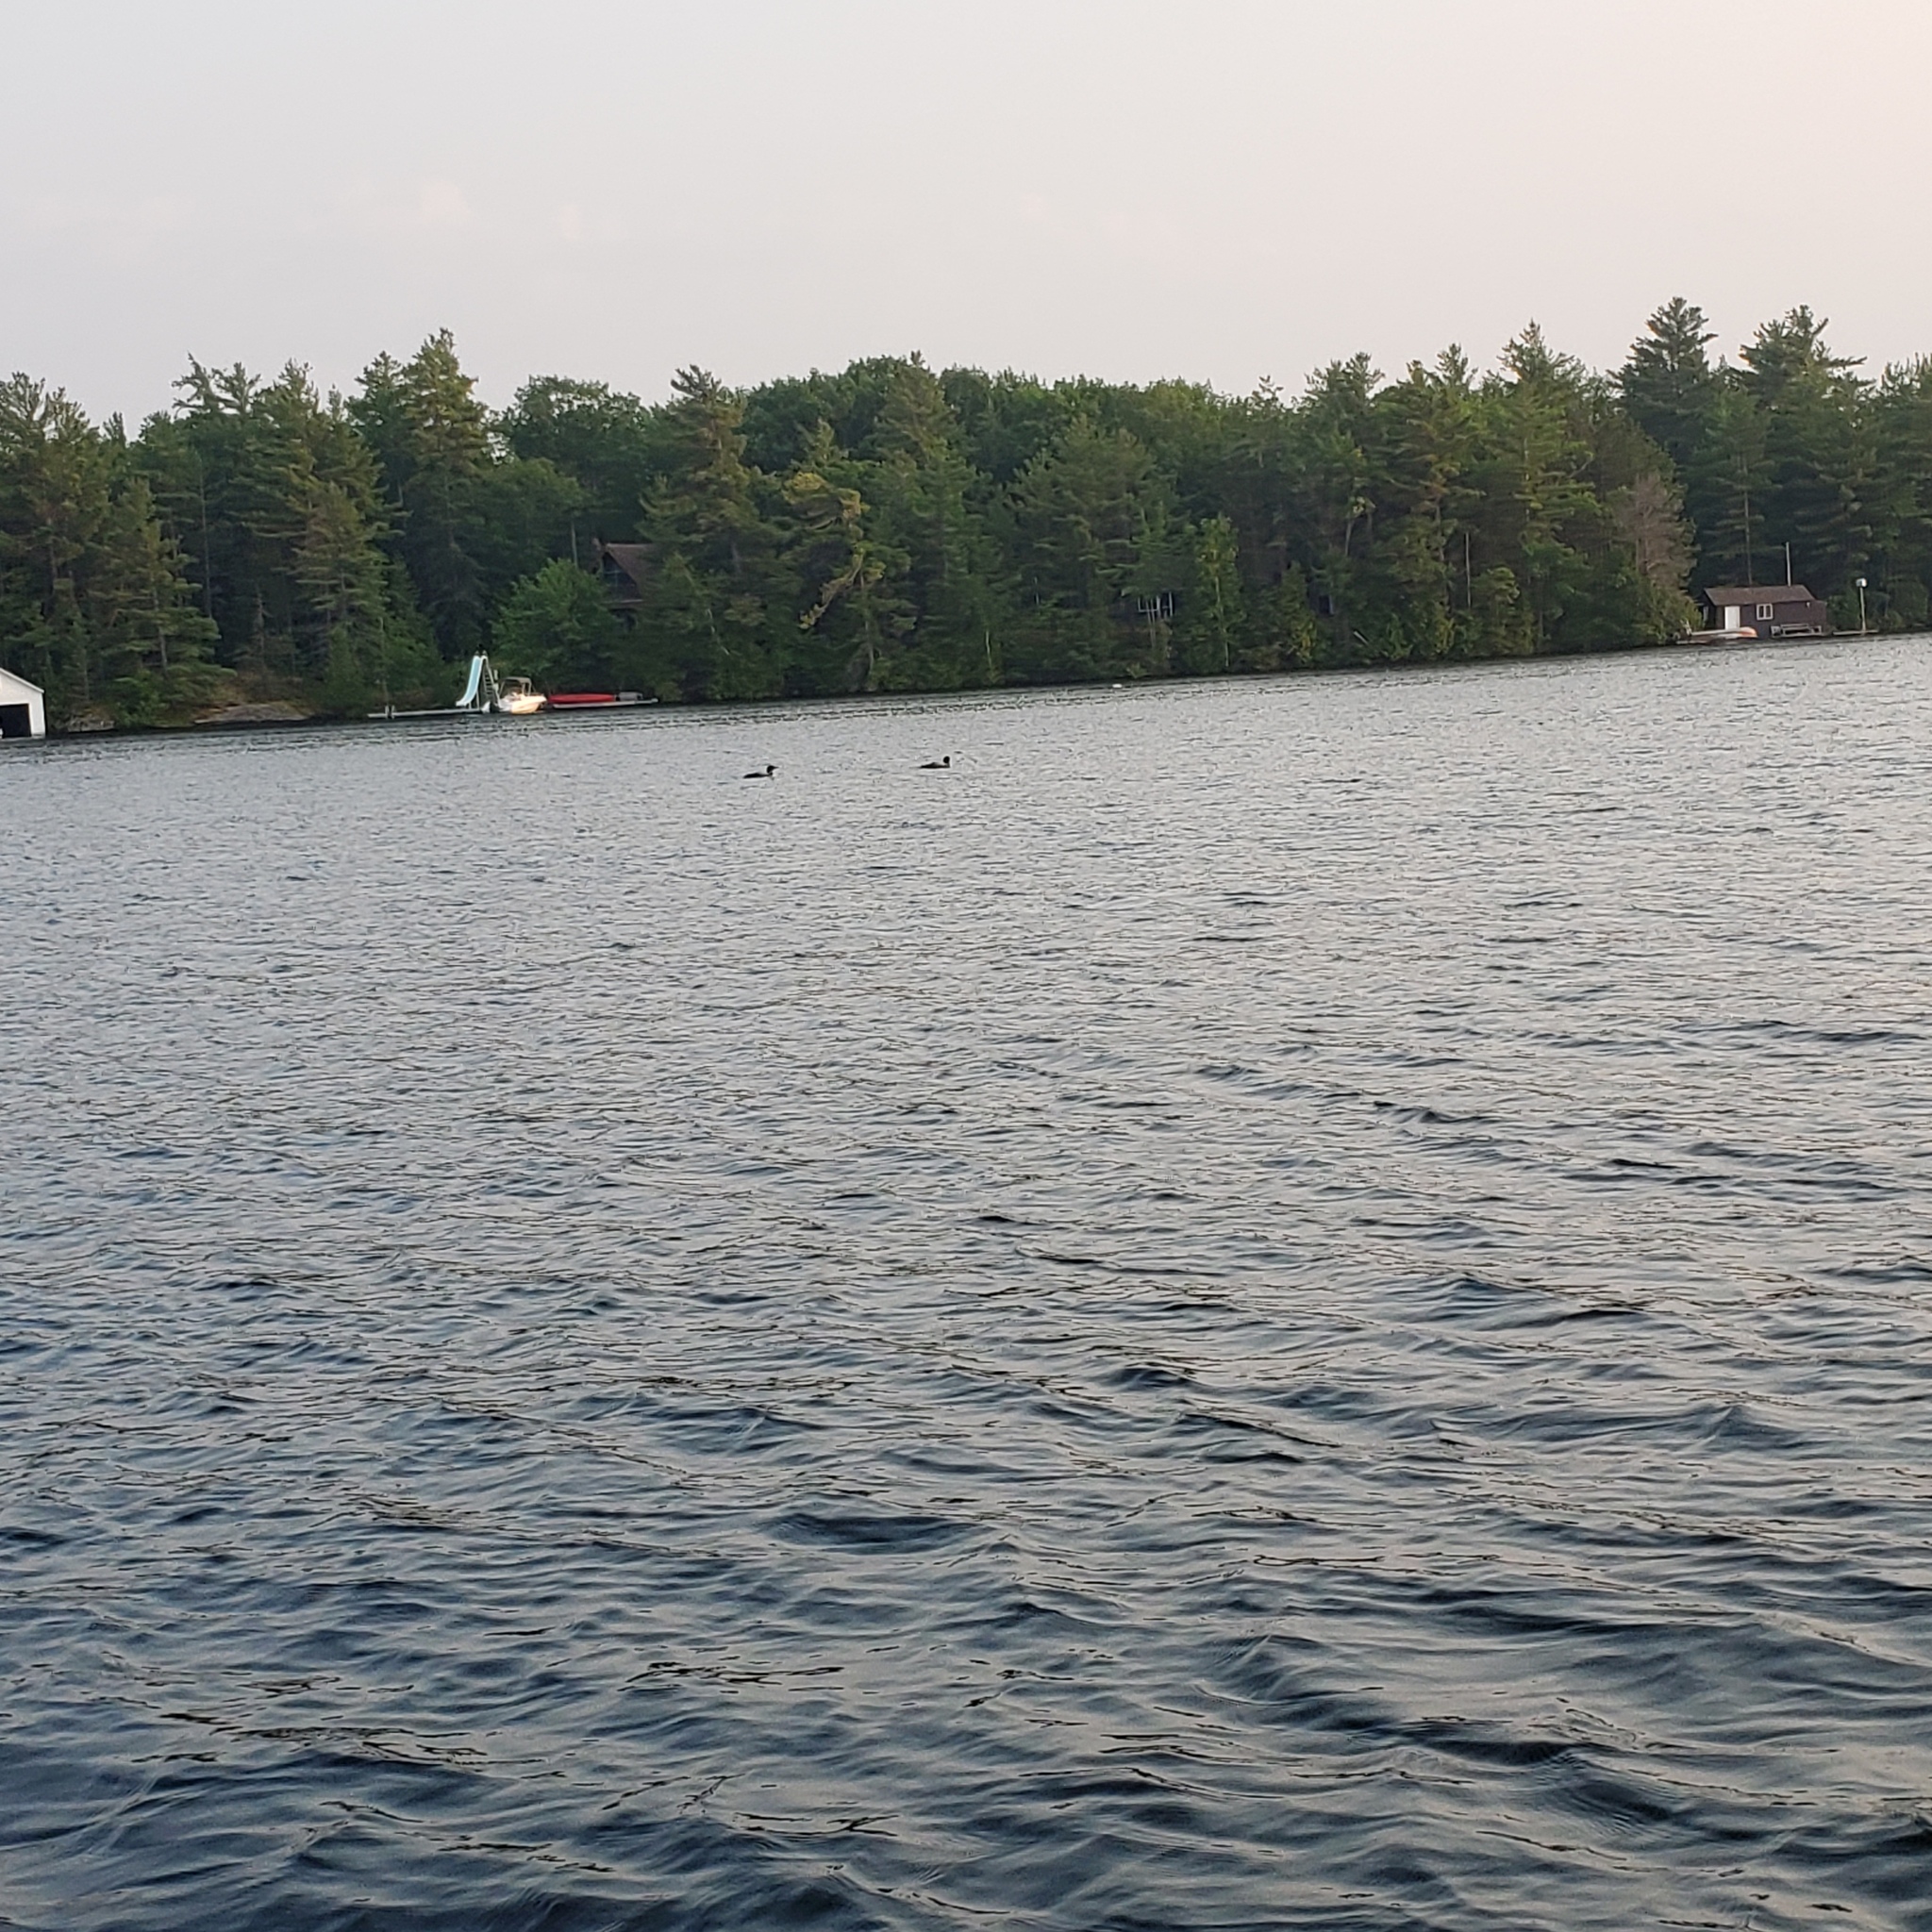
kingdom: Animalia
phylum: Chordata
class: Aves
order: Gaviiformes
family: Gaviidae
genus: Gavia
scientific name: Gavia immer
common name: Common loon
